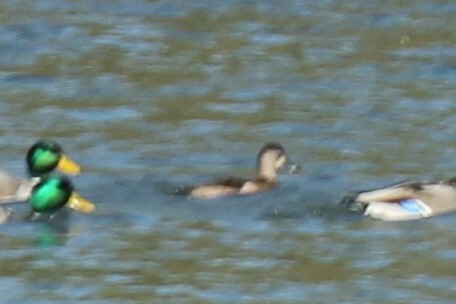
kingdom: Animalia
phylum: Chordata
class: Aves
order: Anseriformes
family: Anatidae
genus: Aythya
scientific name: Aythya collaris
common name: Ring-necked duck
